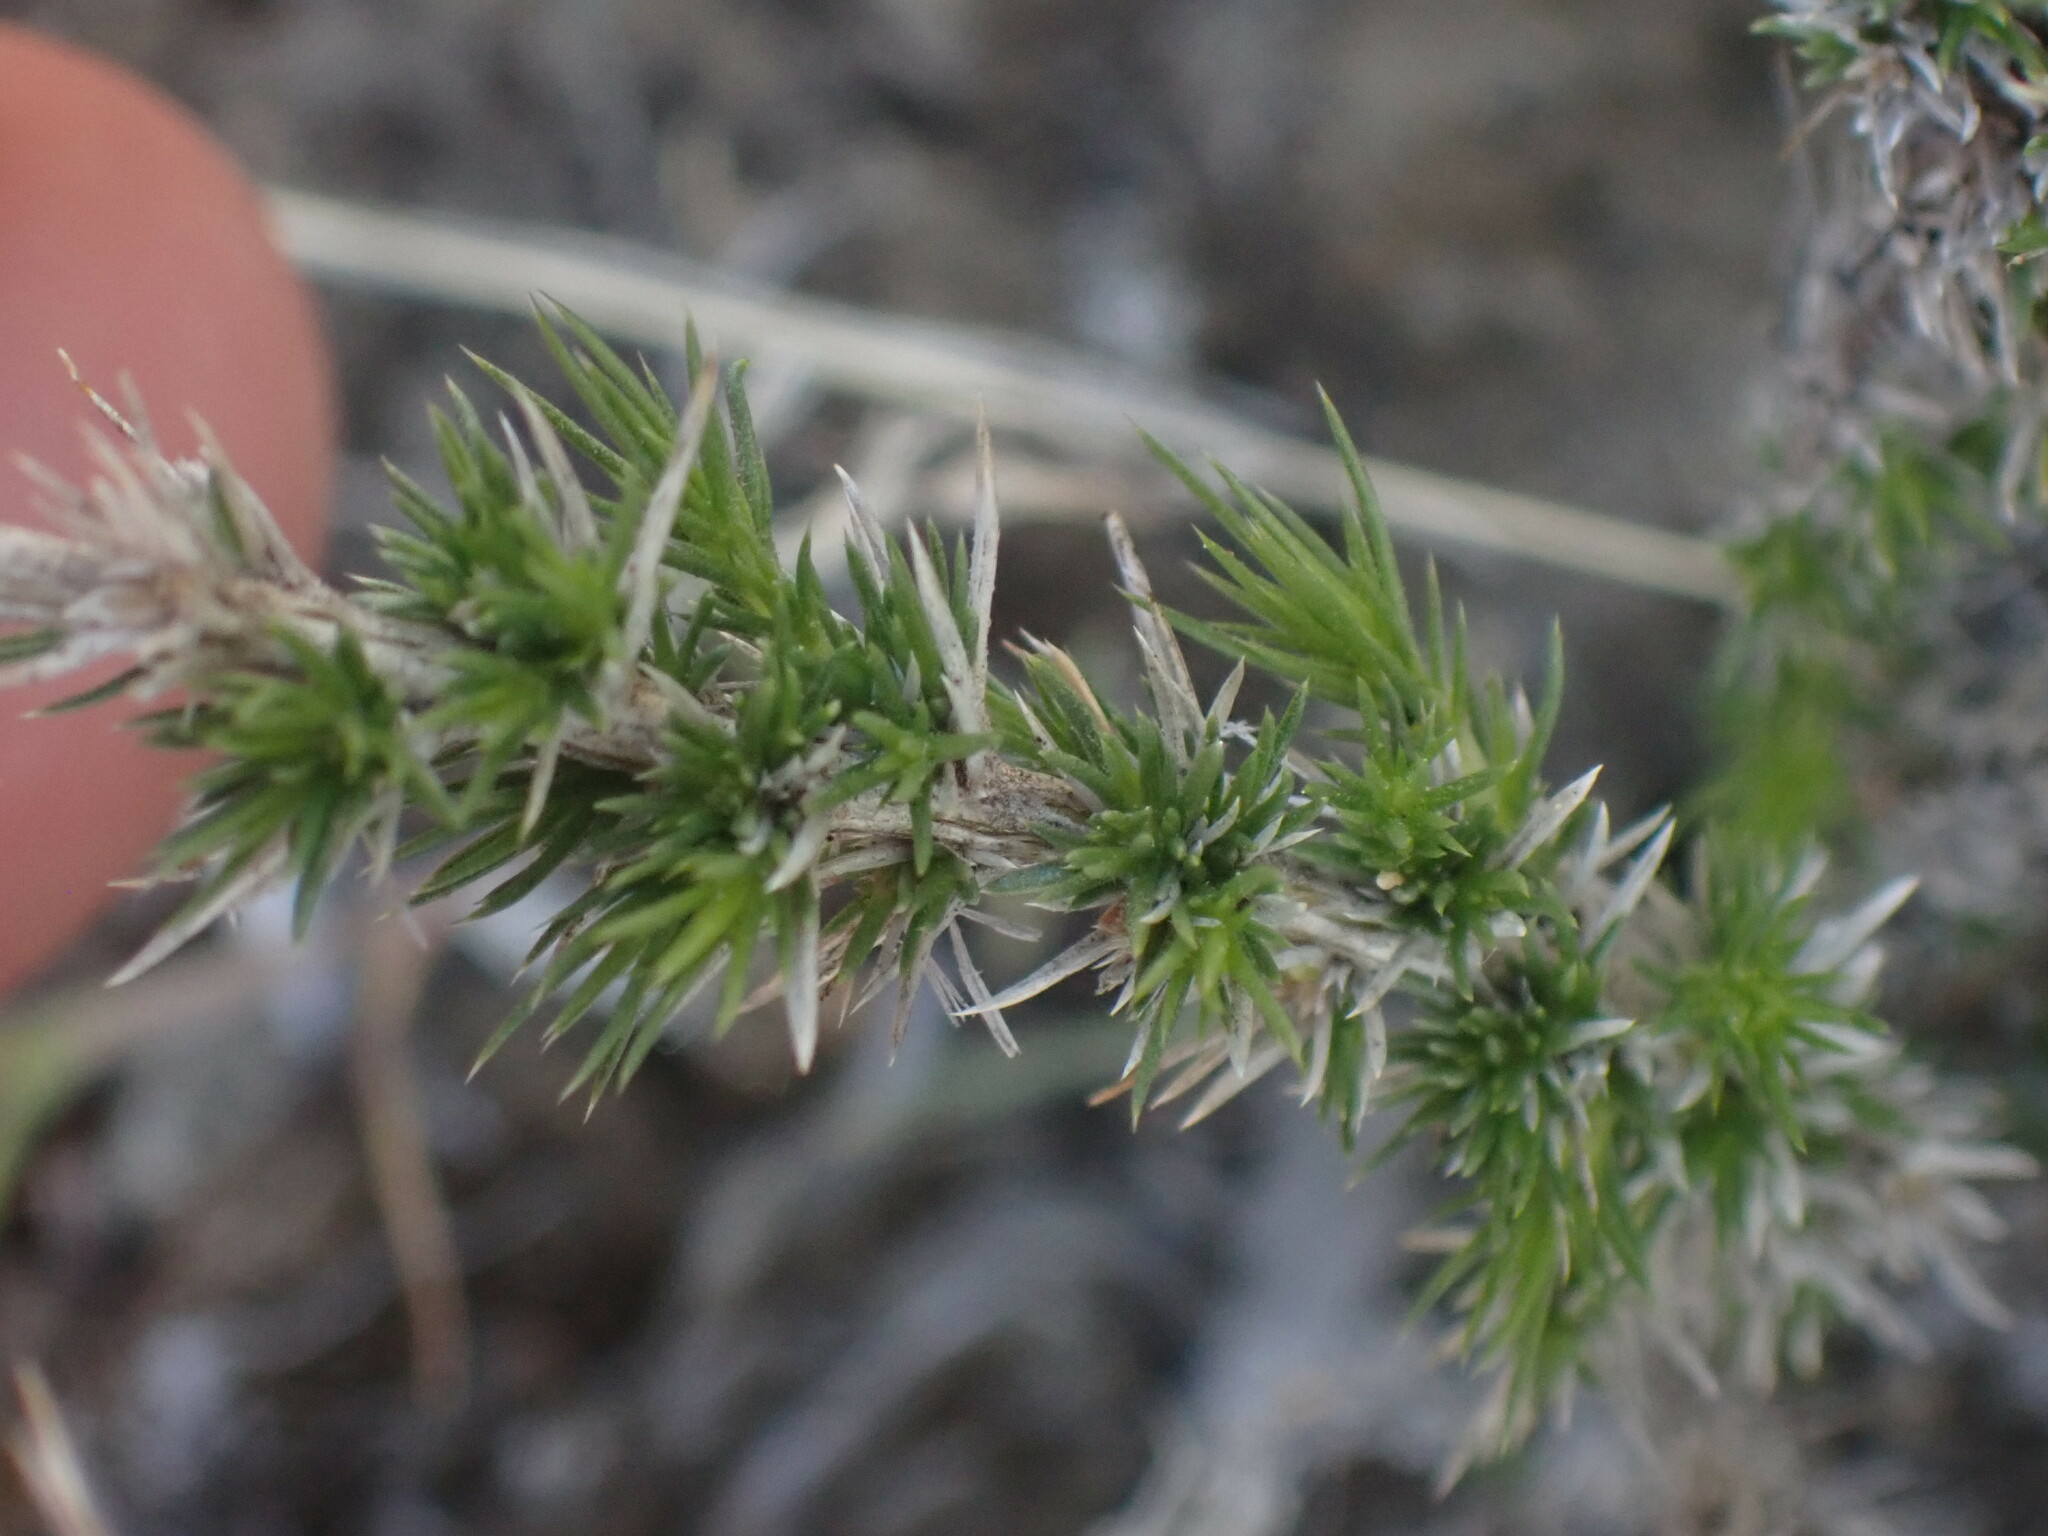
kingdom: Plantae
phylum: Tracheophyta
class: Magnoliopsida
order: Ericales
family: Polemoniaceae
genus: Linanthus
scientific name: Linanthus pungens
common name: Granite prickly phlox
